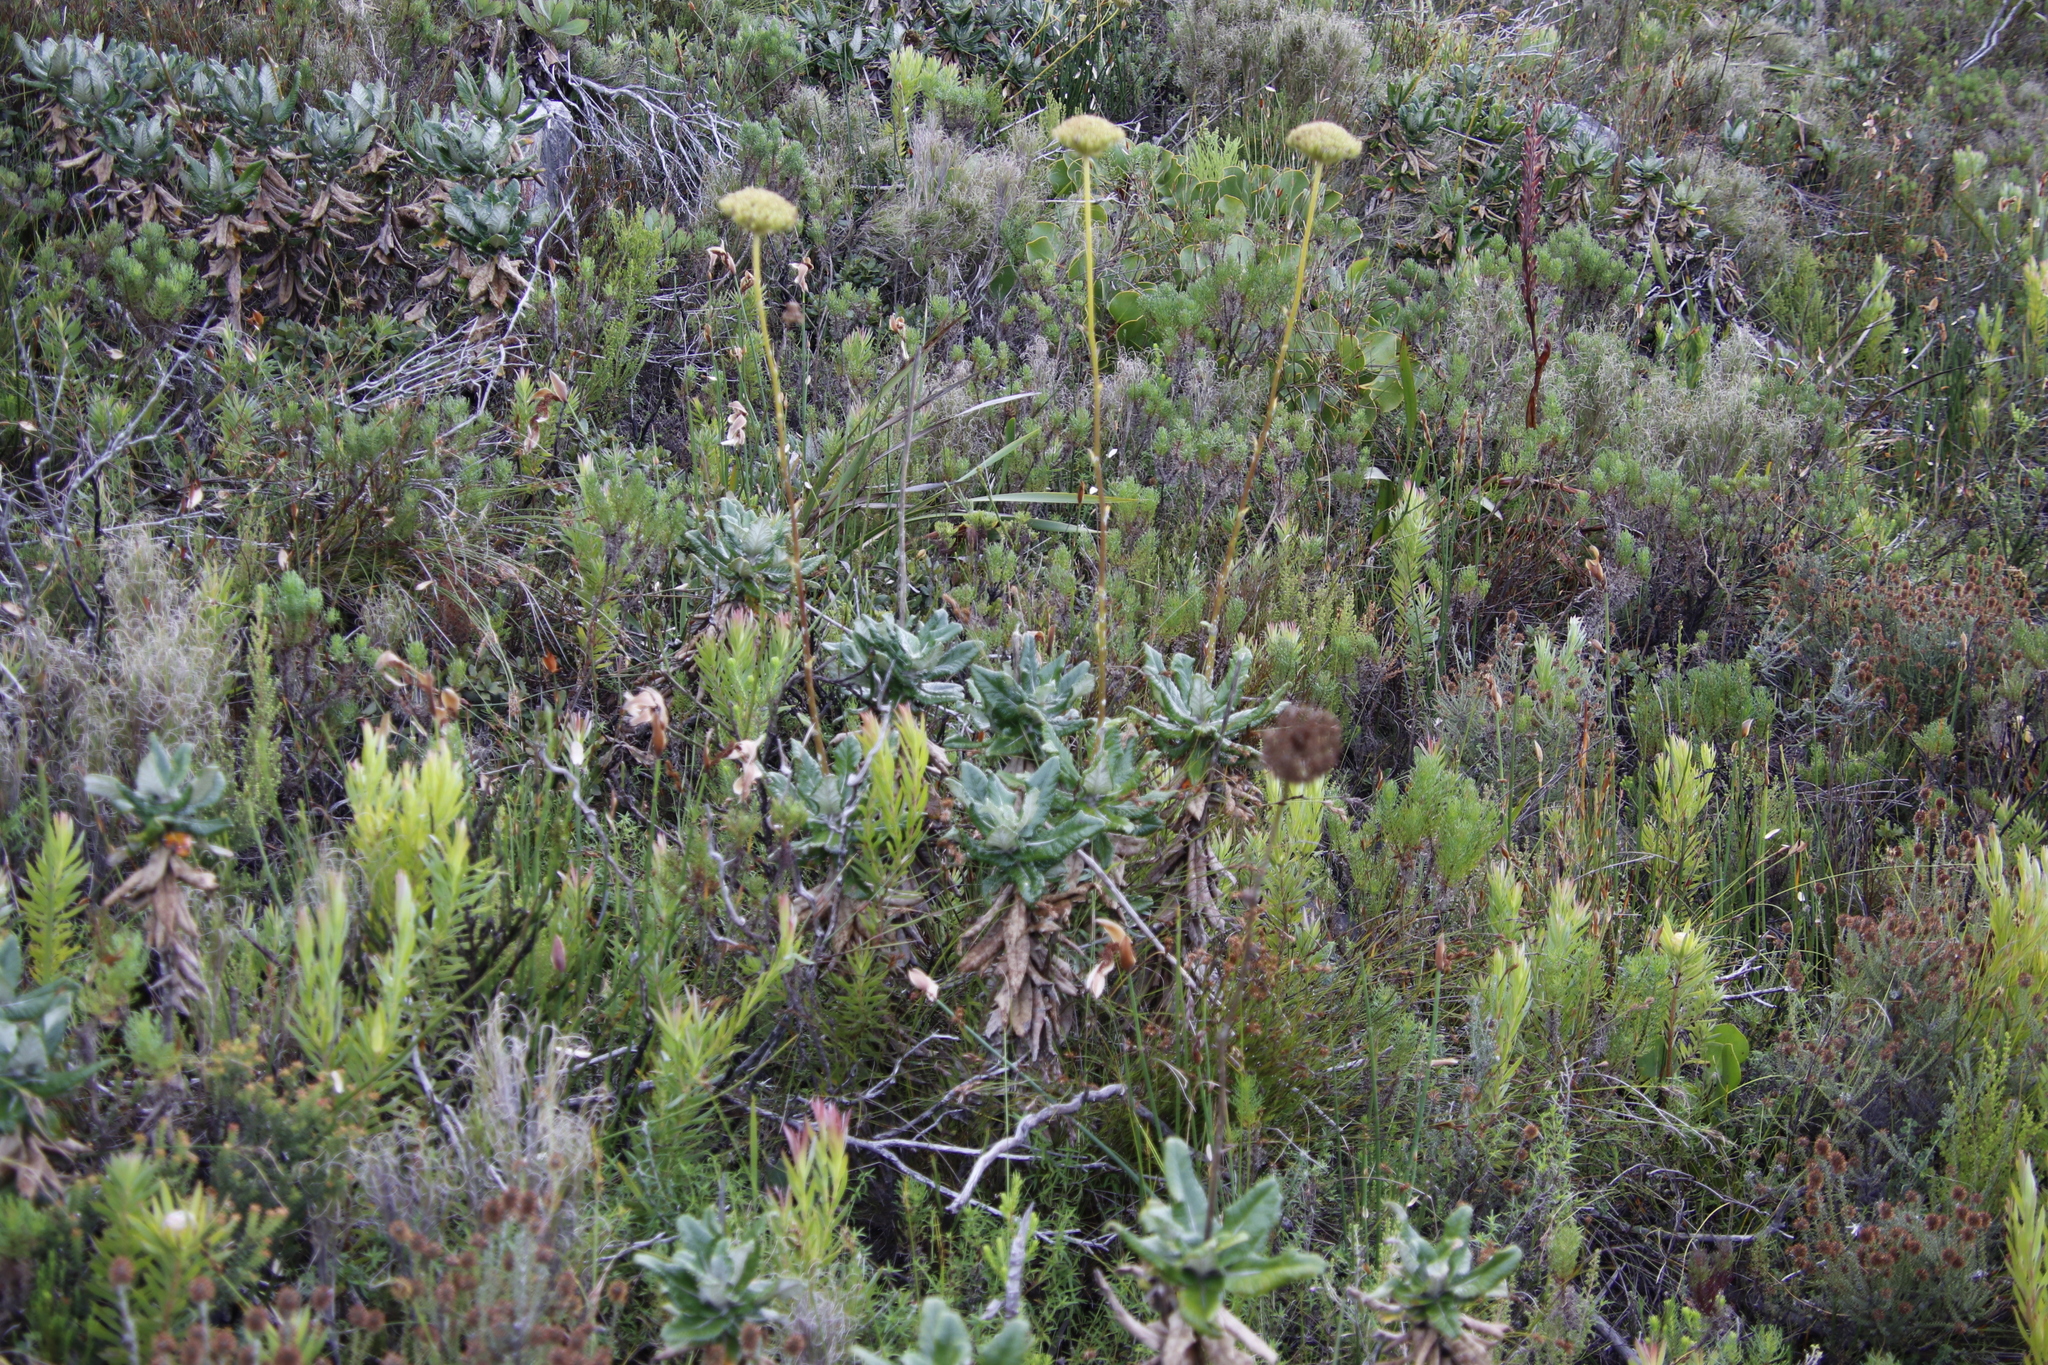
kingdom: Plantae
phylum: Tracheophyta
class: Magnoliopsida
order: Apiales
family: Apiaceae
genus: Hermas
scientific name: Hermas villosa
